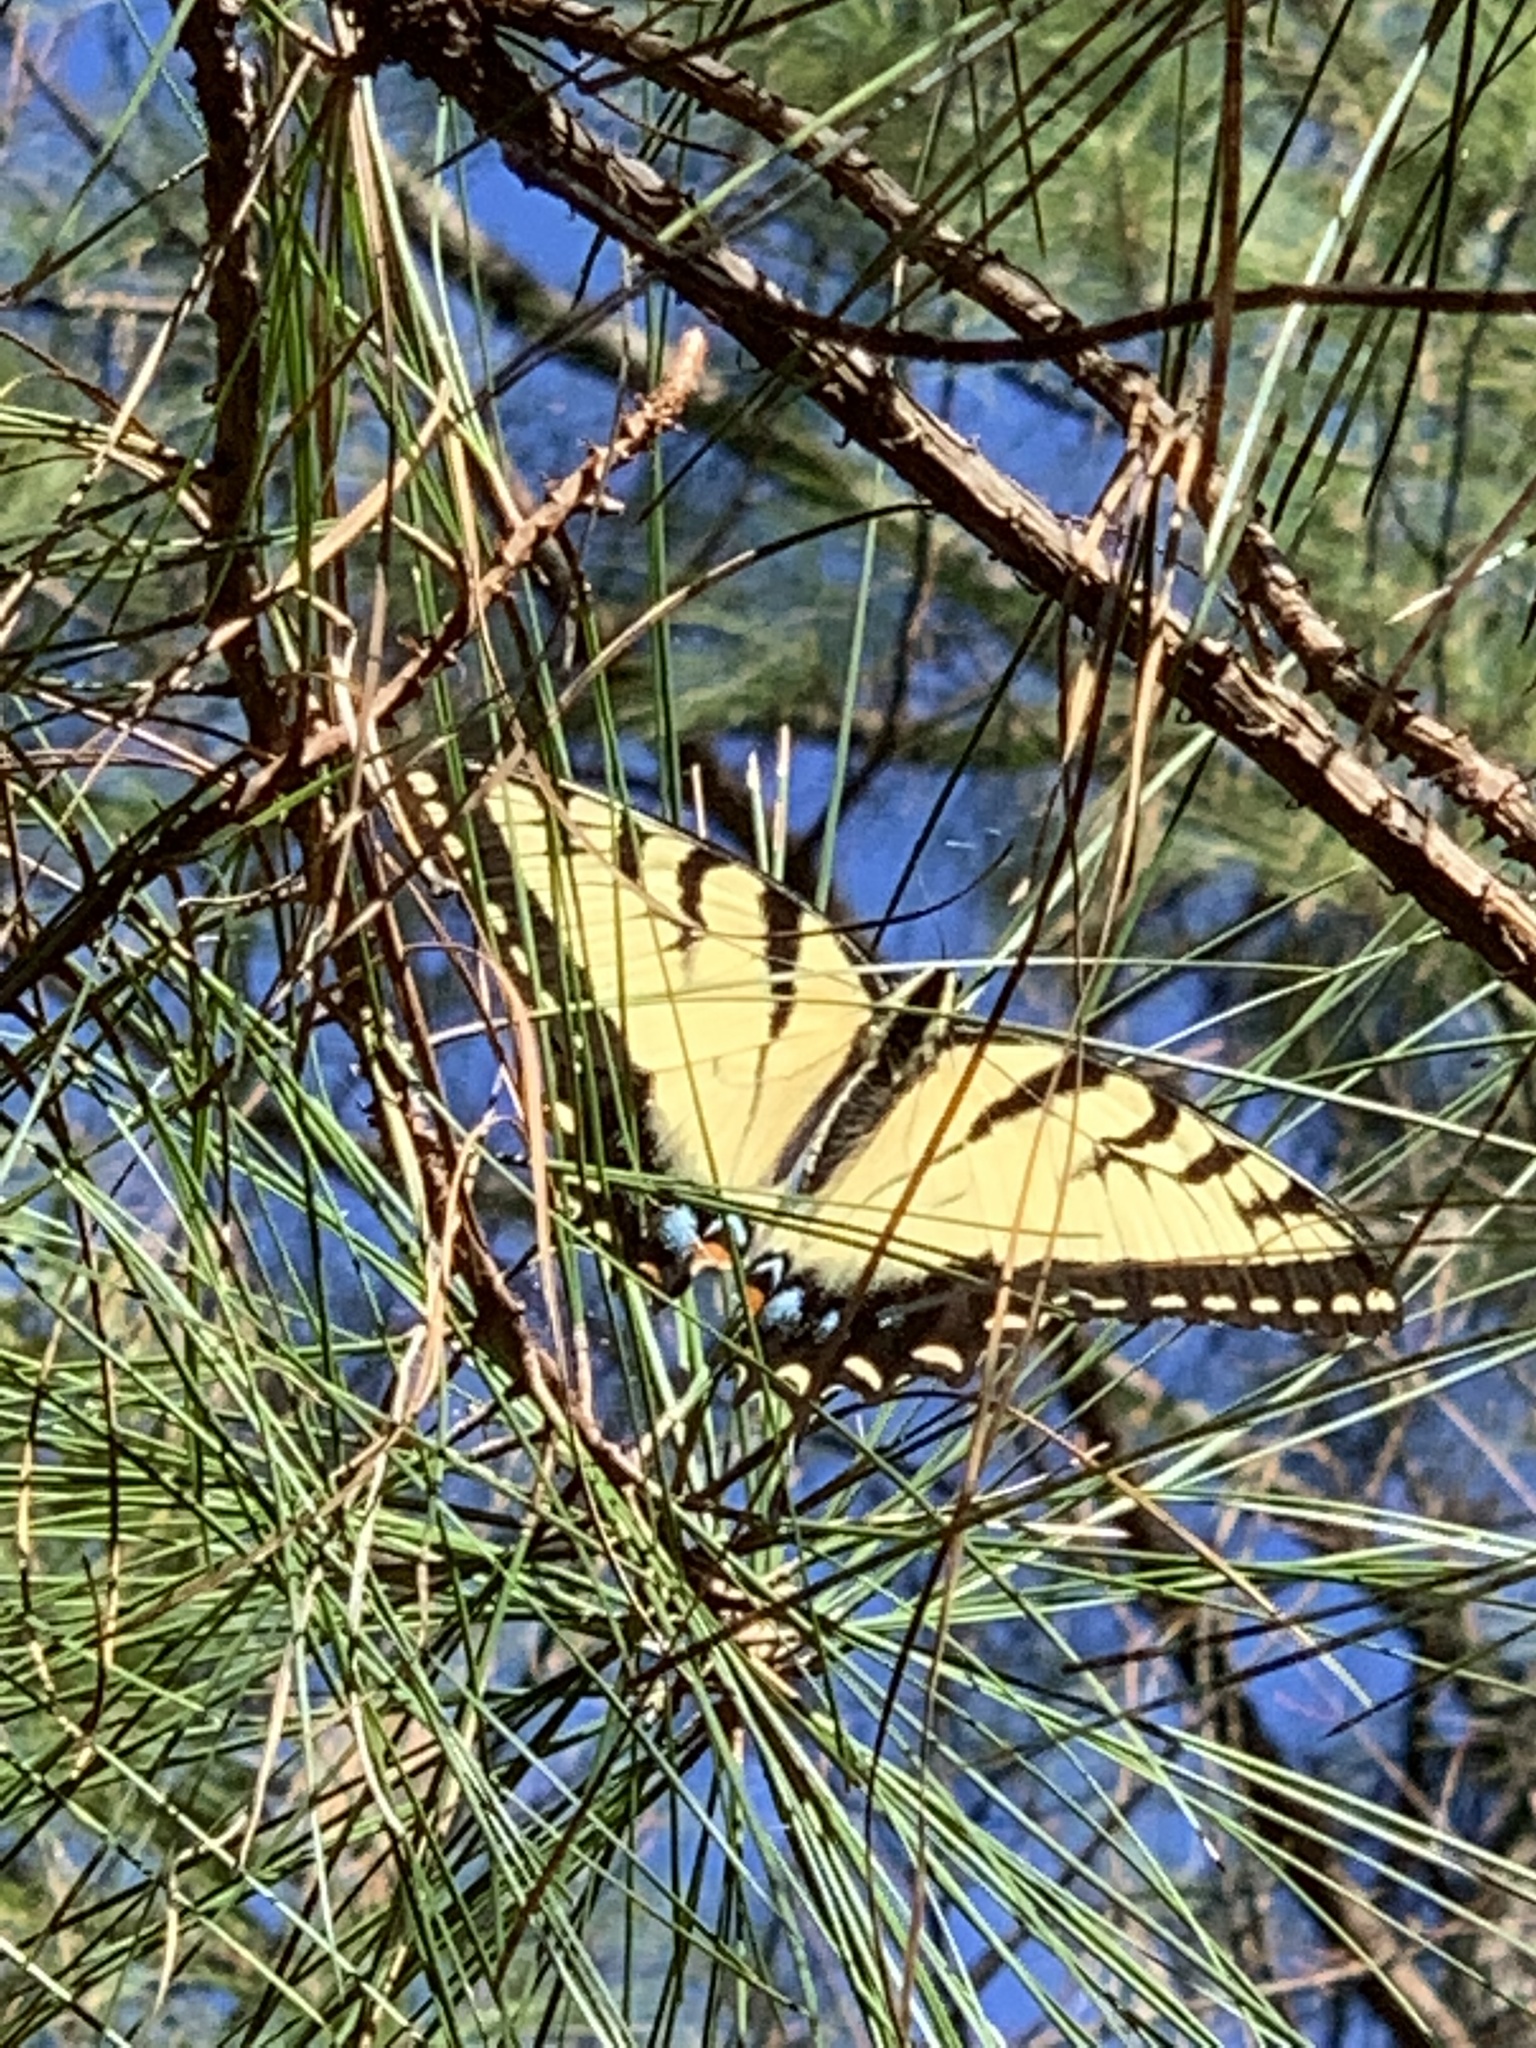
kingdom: Animalia
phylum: Arthropoda
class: Insecta
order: Lepidoptera
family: Papilionidae
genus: Papilio
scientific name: Papilio glaucus
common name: Tiger swallowtail
